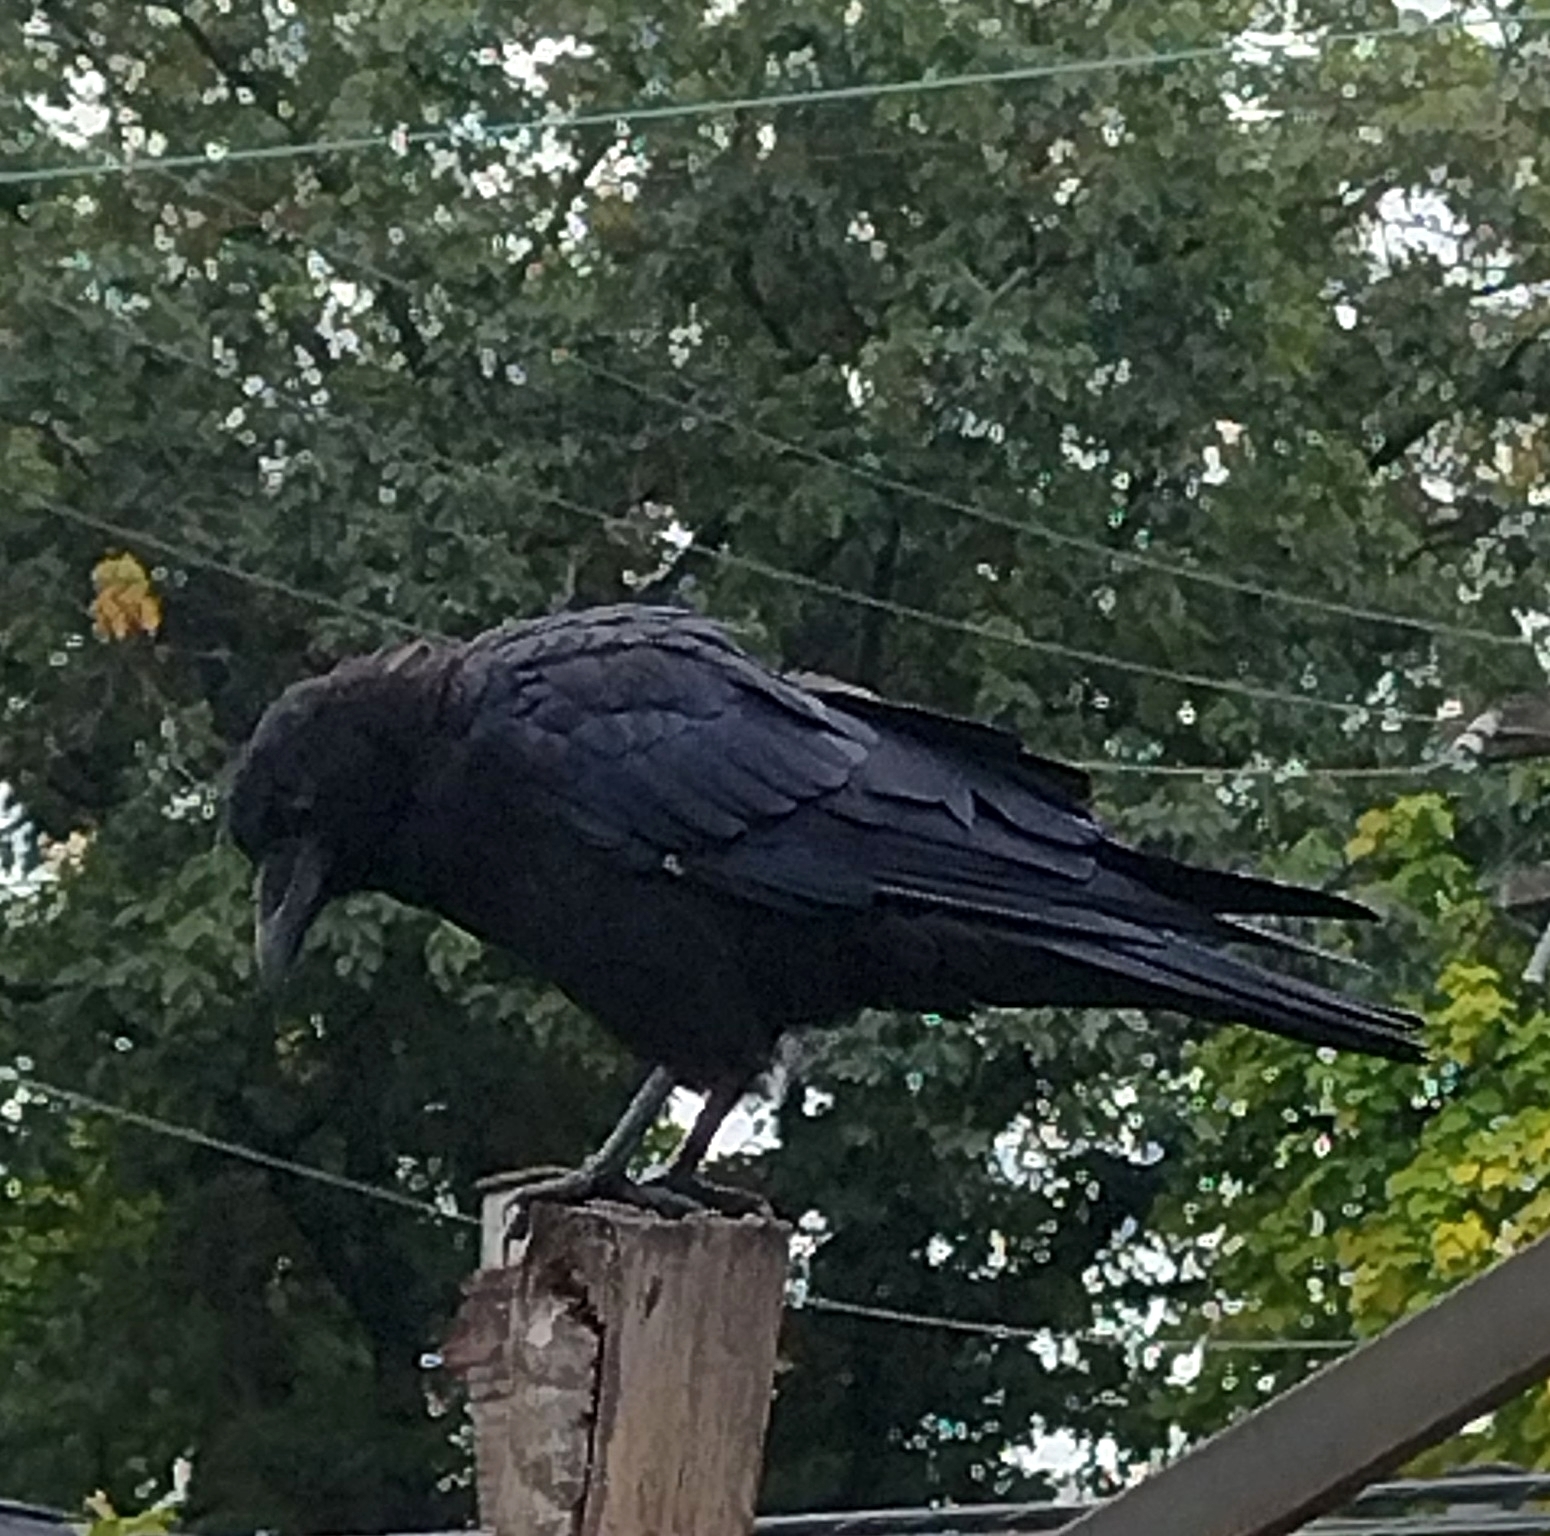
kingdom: Animalia
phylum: Chordata
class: Aves
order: Passeriformes
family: Corvidae
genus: Corvus
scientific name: Corvus brachyrhynchos
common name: American crow
